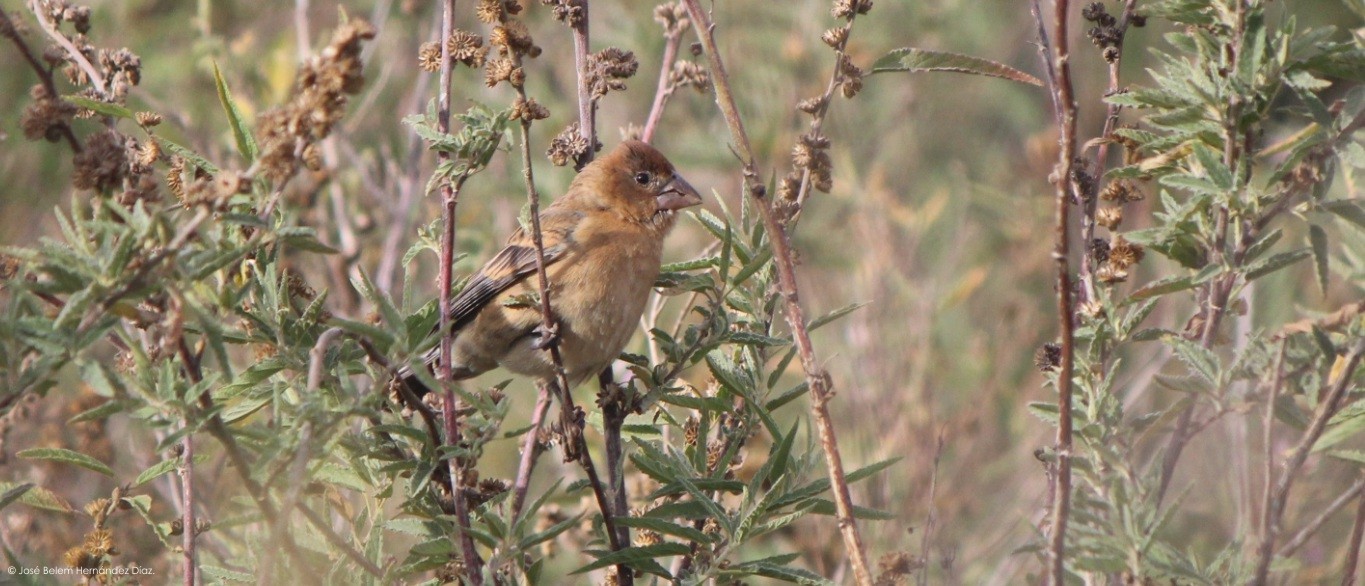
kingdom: Animalia
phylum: Chordata
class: Aves
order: Passeriformes
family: Cardinalidae
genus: Passerina
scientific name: Passerina caerulea
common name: Blue grosbeak
